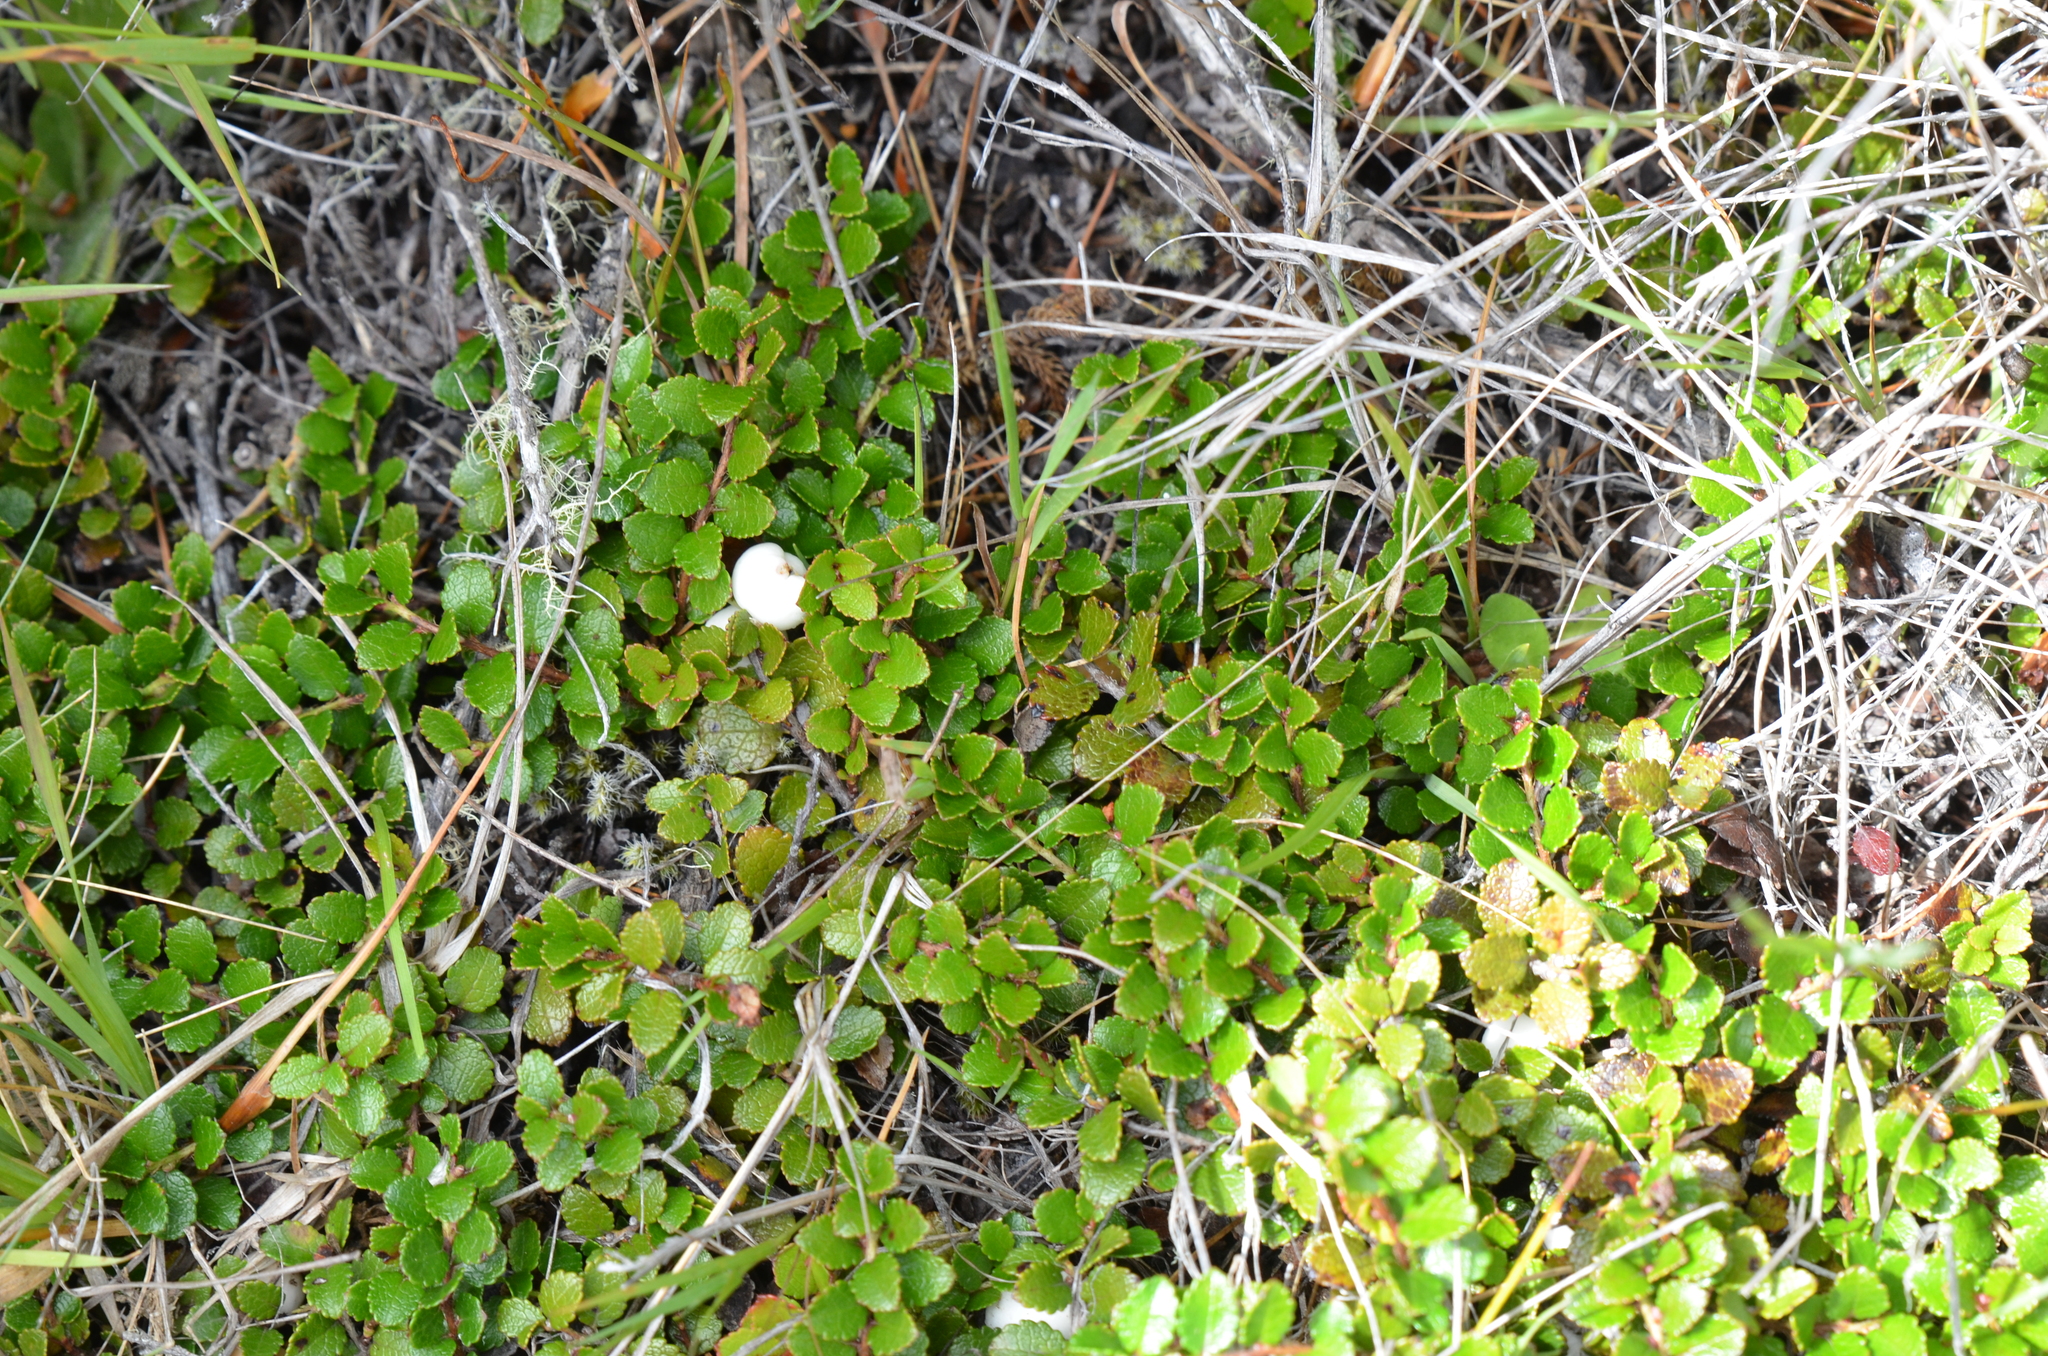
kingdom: Plantae
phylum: Tracheophyta
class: Magnoliopsida
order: Ericales
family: Ericaceae
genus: Gaultheria
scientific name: Gaultheria depressa
